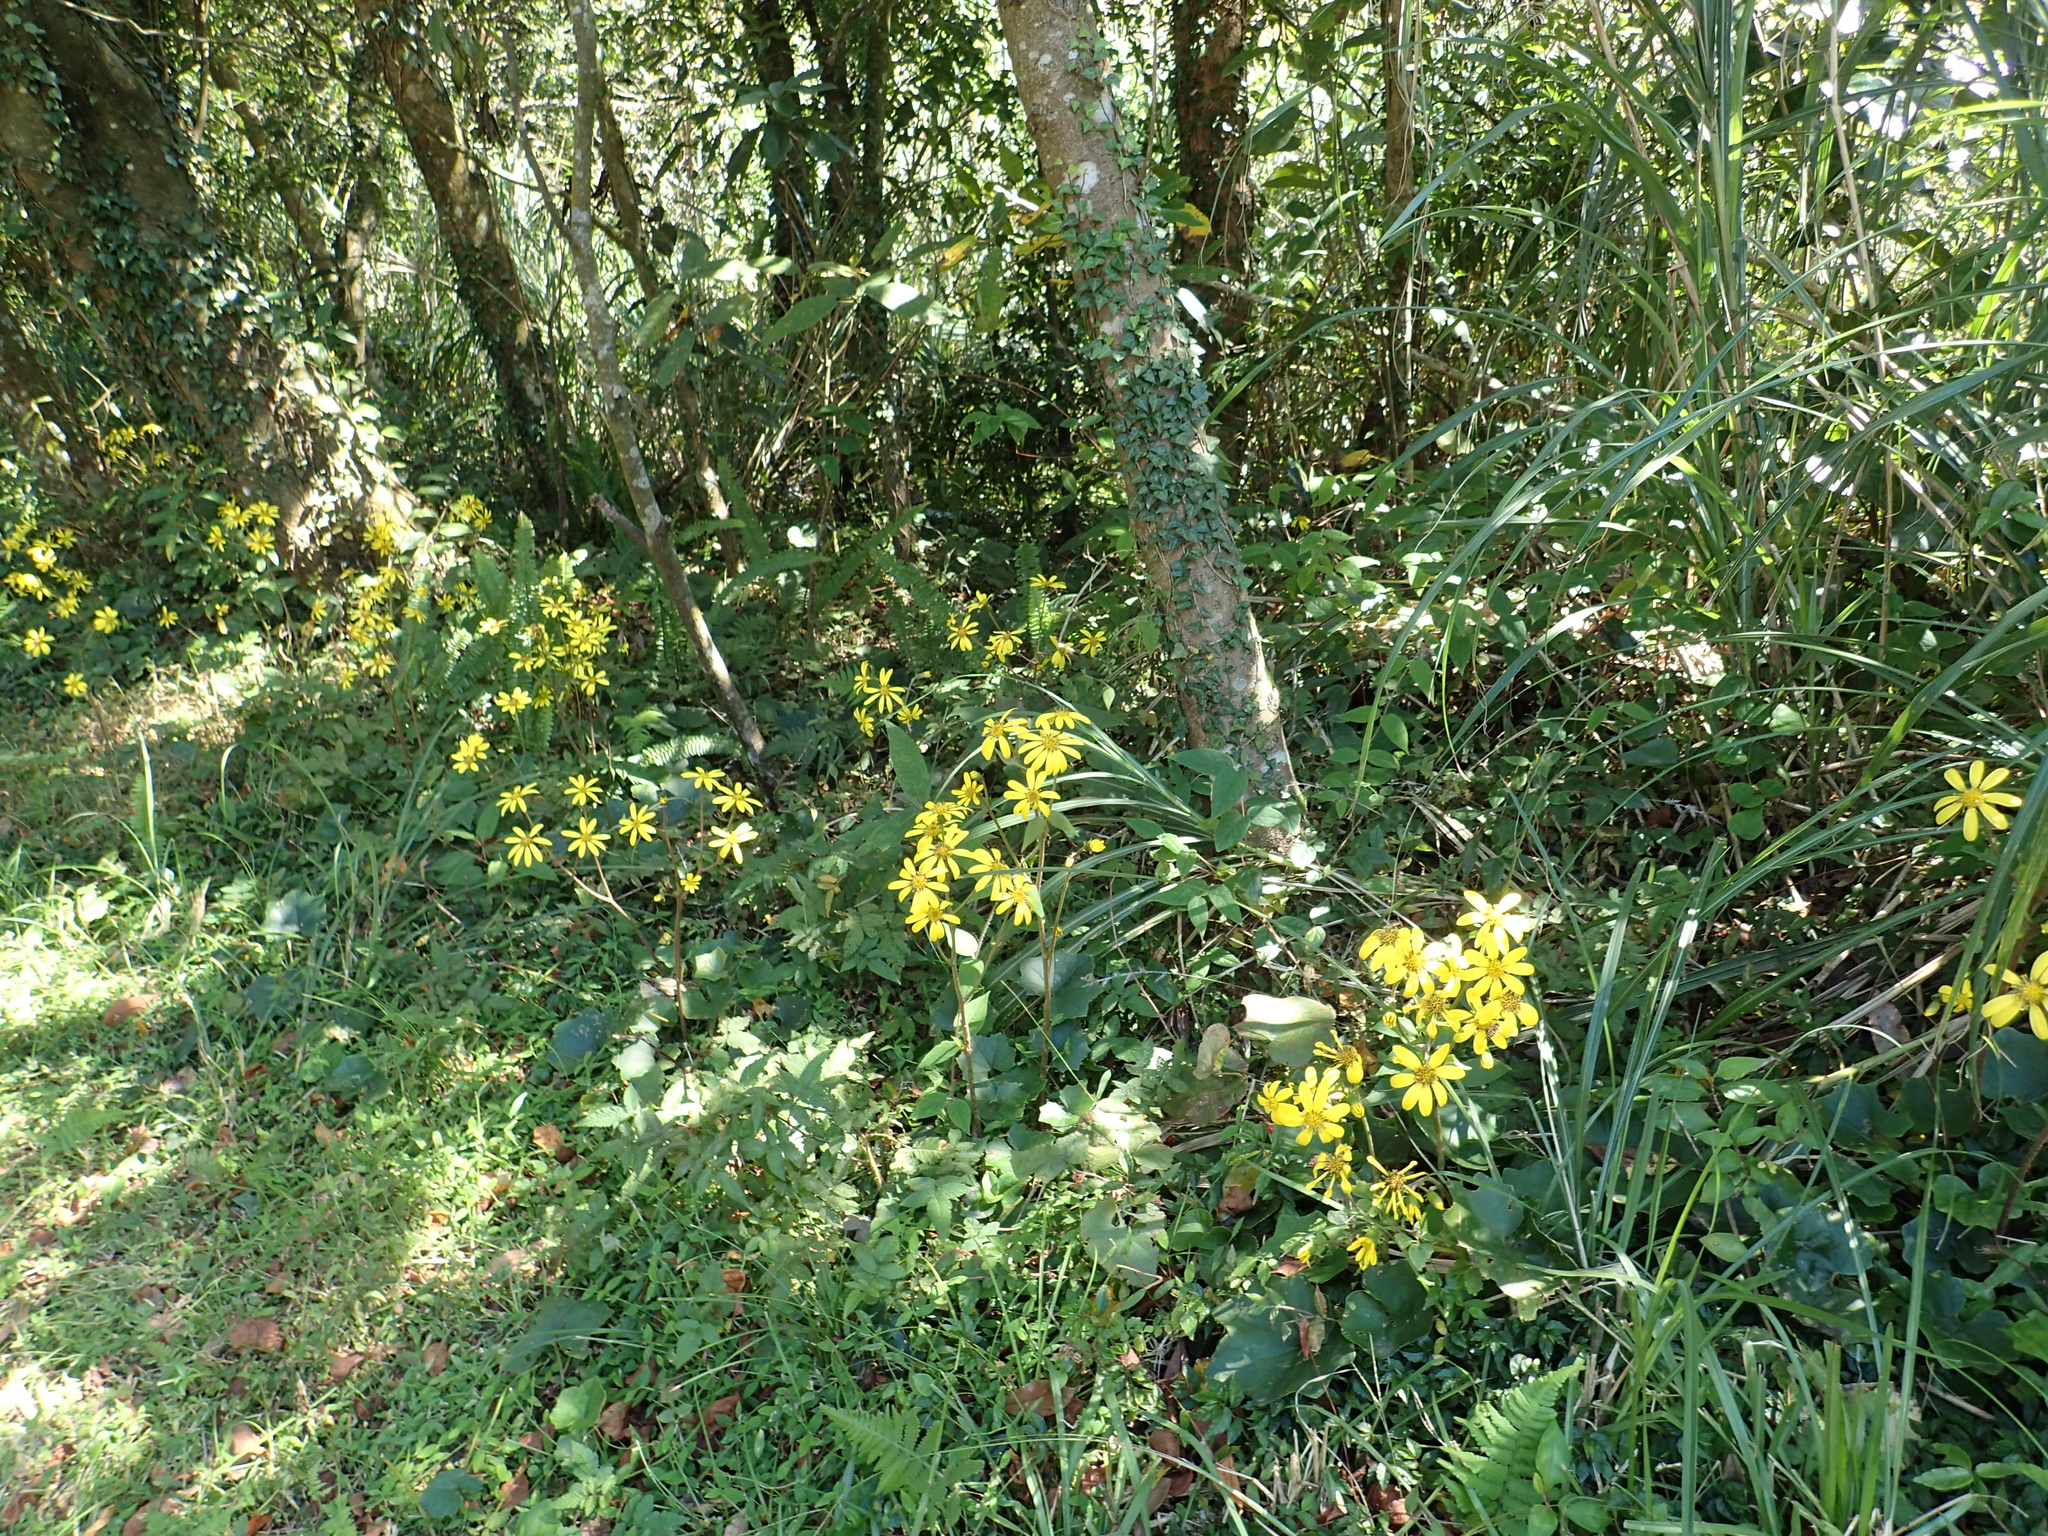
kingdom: Plantae
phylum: Tracheophyta
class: Magnoliopsida
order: Asterales
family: Asteraceae
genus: Farfugium
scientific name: Farfugium japonicum
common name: Leopardplant
